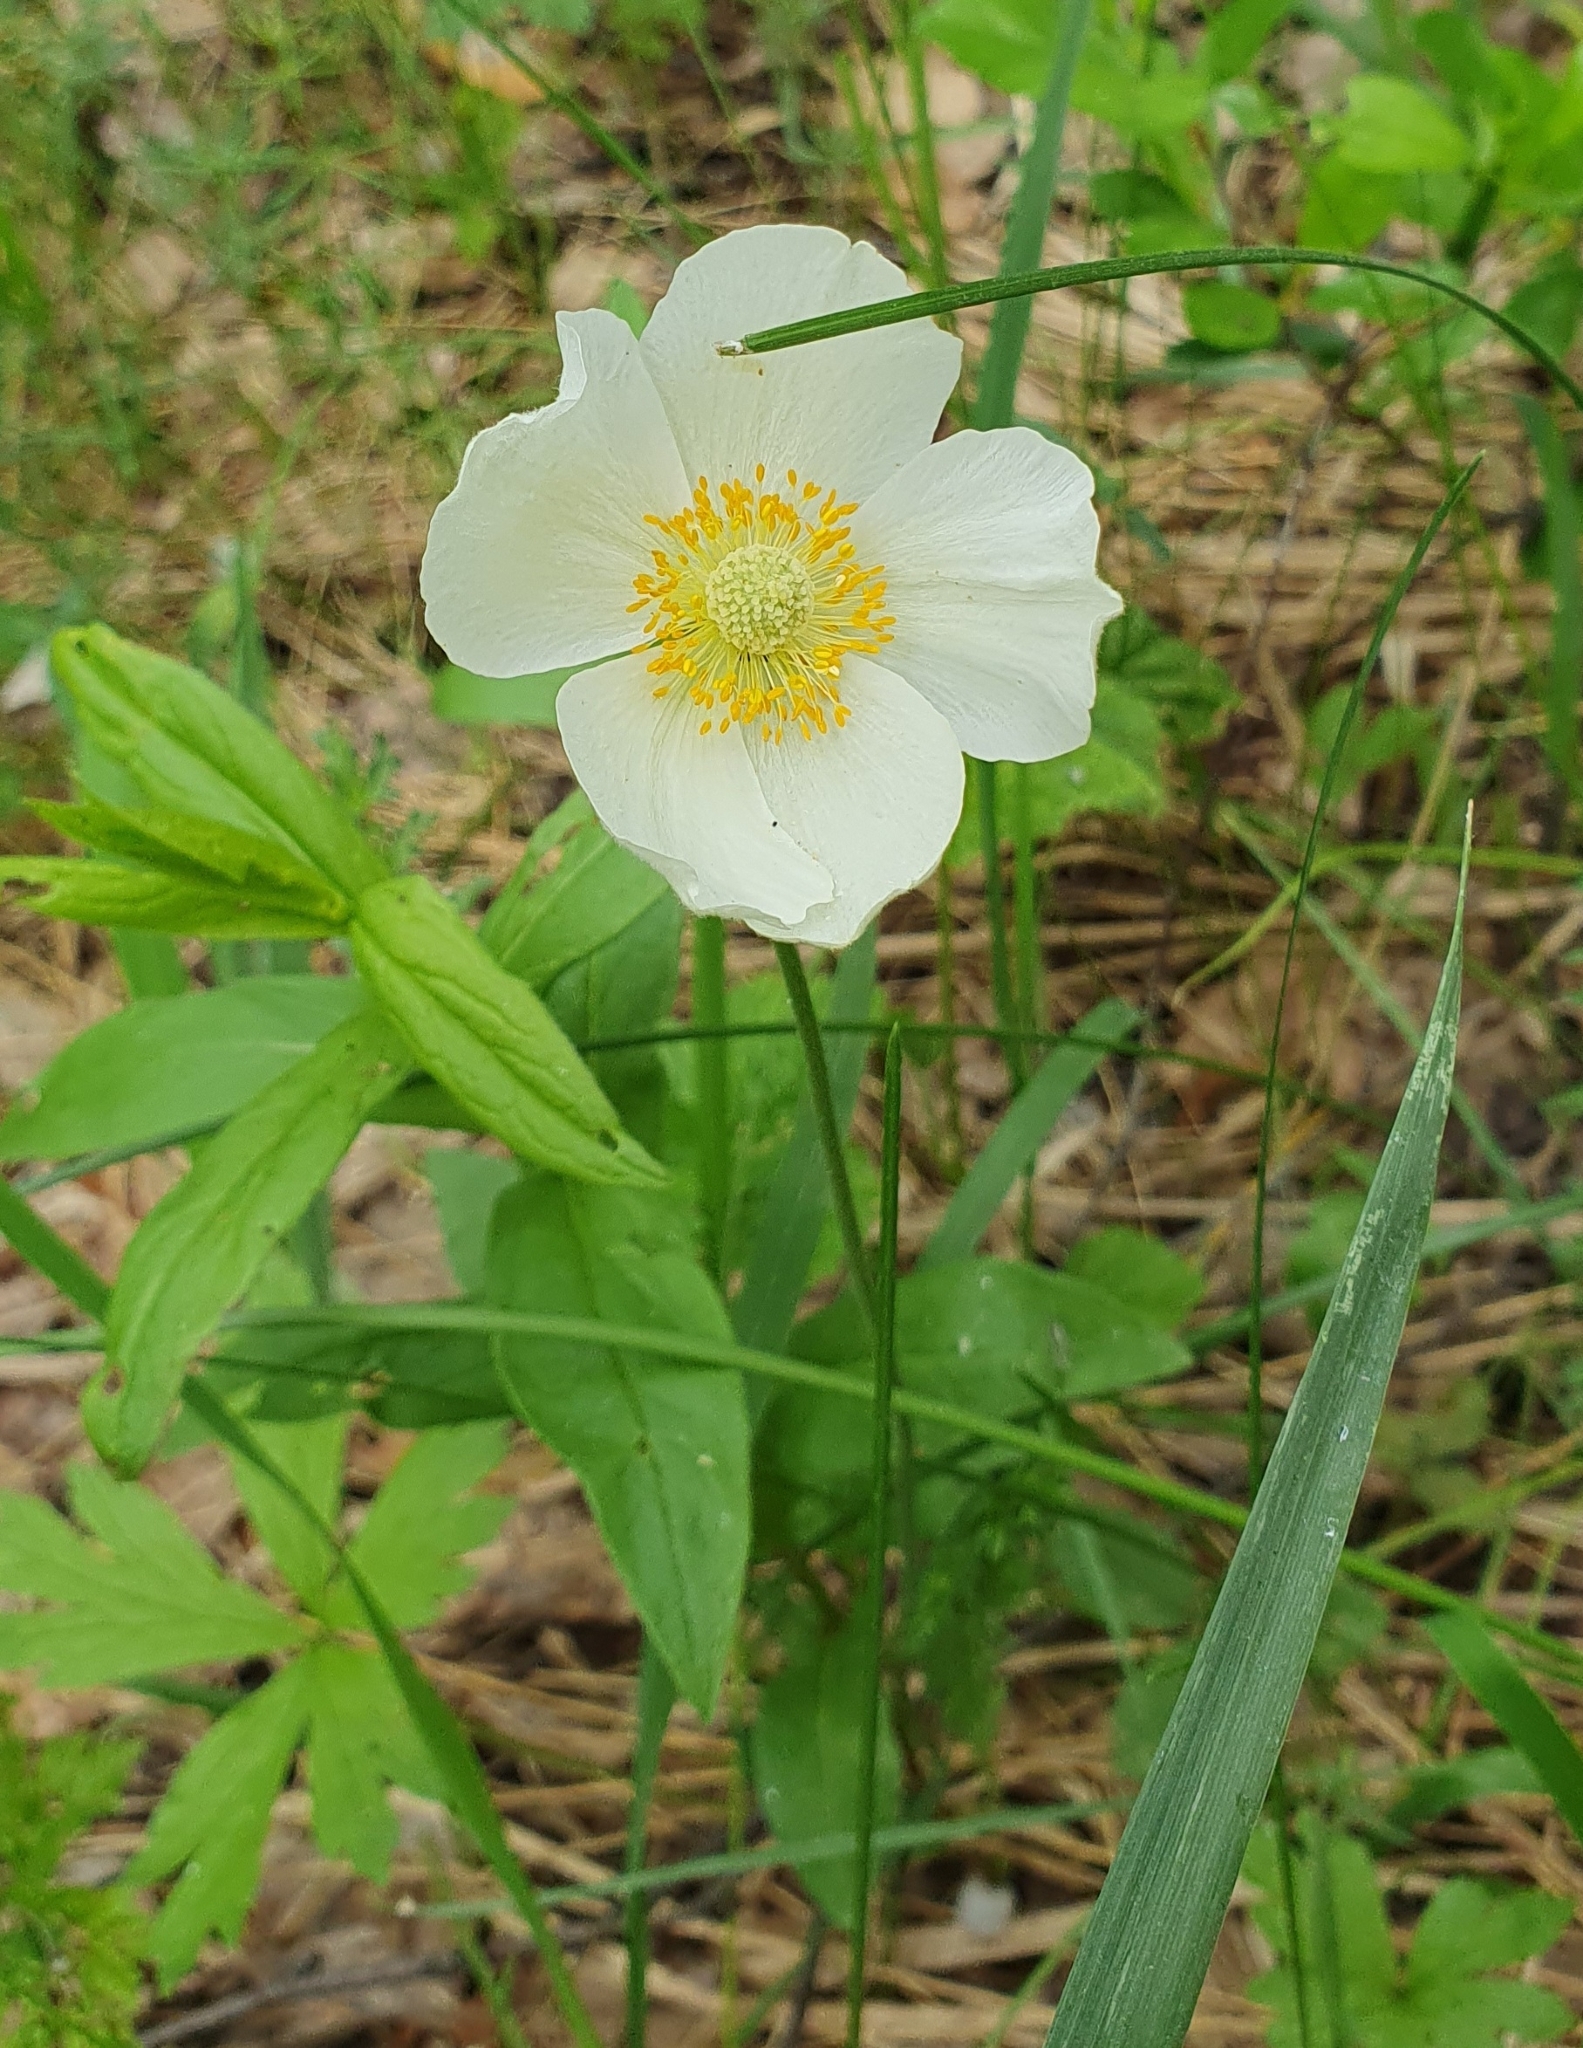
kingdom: Plantae
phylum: Tracheophyta
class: Magnoliopsida
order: Ranunculales
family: Ranunculaceae
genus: Anemone
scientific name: Anemone sylvestris
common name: Snowdrop anemone
